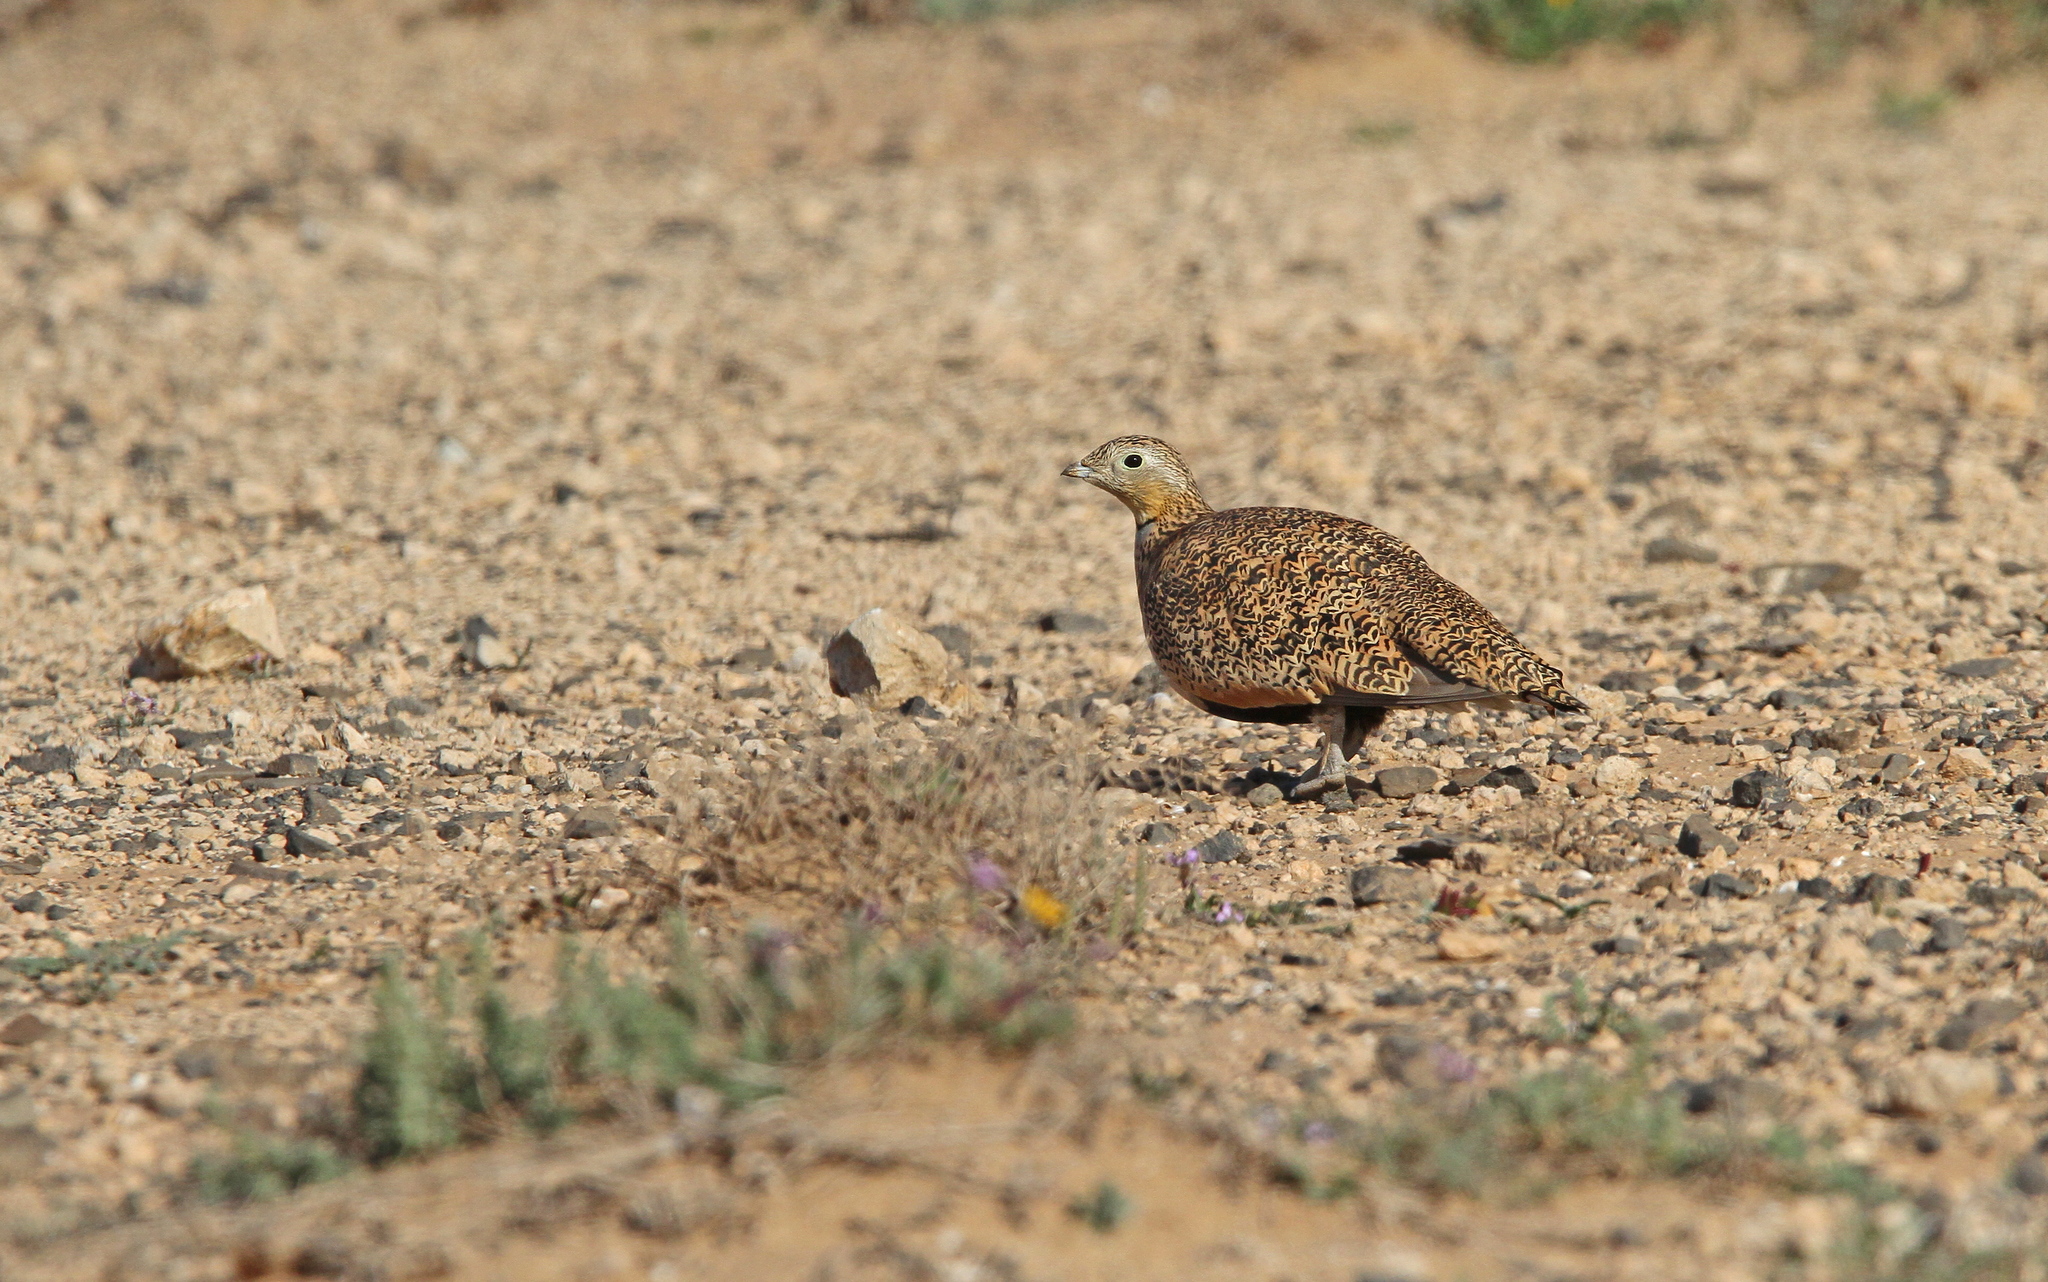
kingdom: Animalia
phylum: Chordata
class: Aves
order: Pteroclidiformes
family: Pteroclididae
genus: Pterocles
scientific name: Pterocles orientalis
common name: Black-bellied sandgrouse
